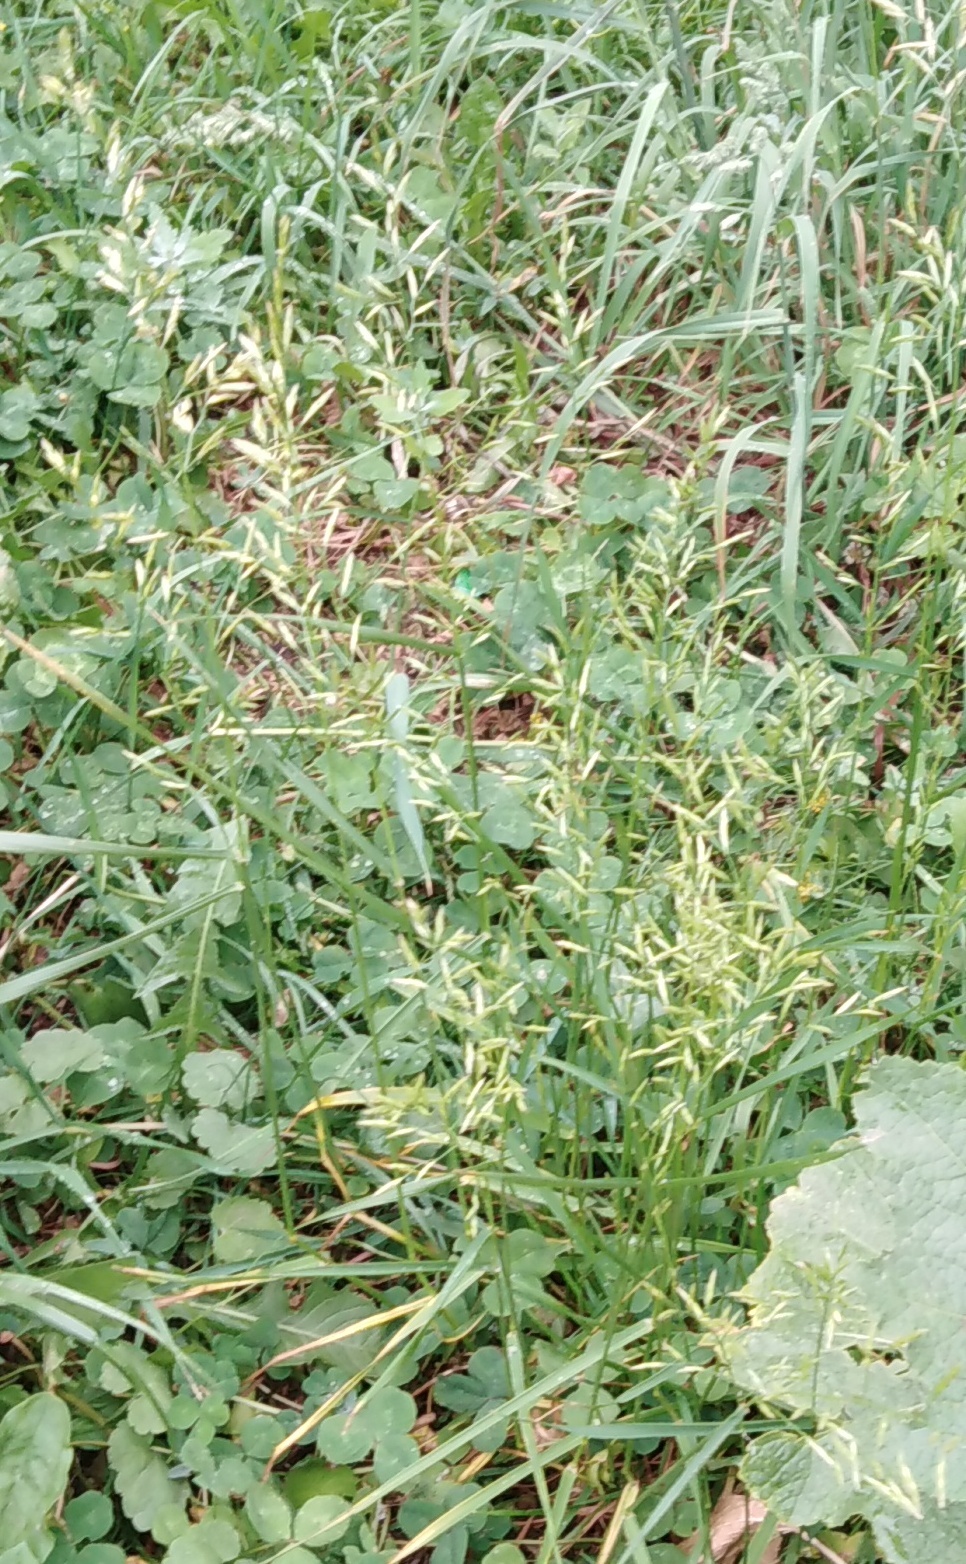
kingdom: Plantae
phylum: Tracheophyta
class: Liliopsida
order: Poales
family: Poaceae
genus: Lolium
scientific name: Lolium pratense
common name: Dover grass
